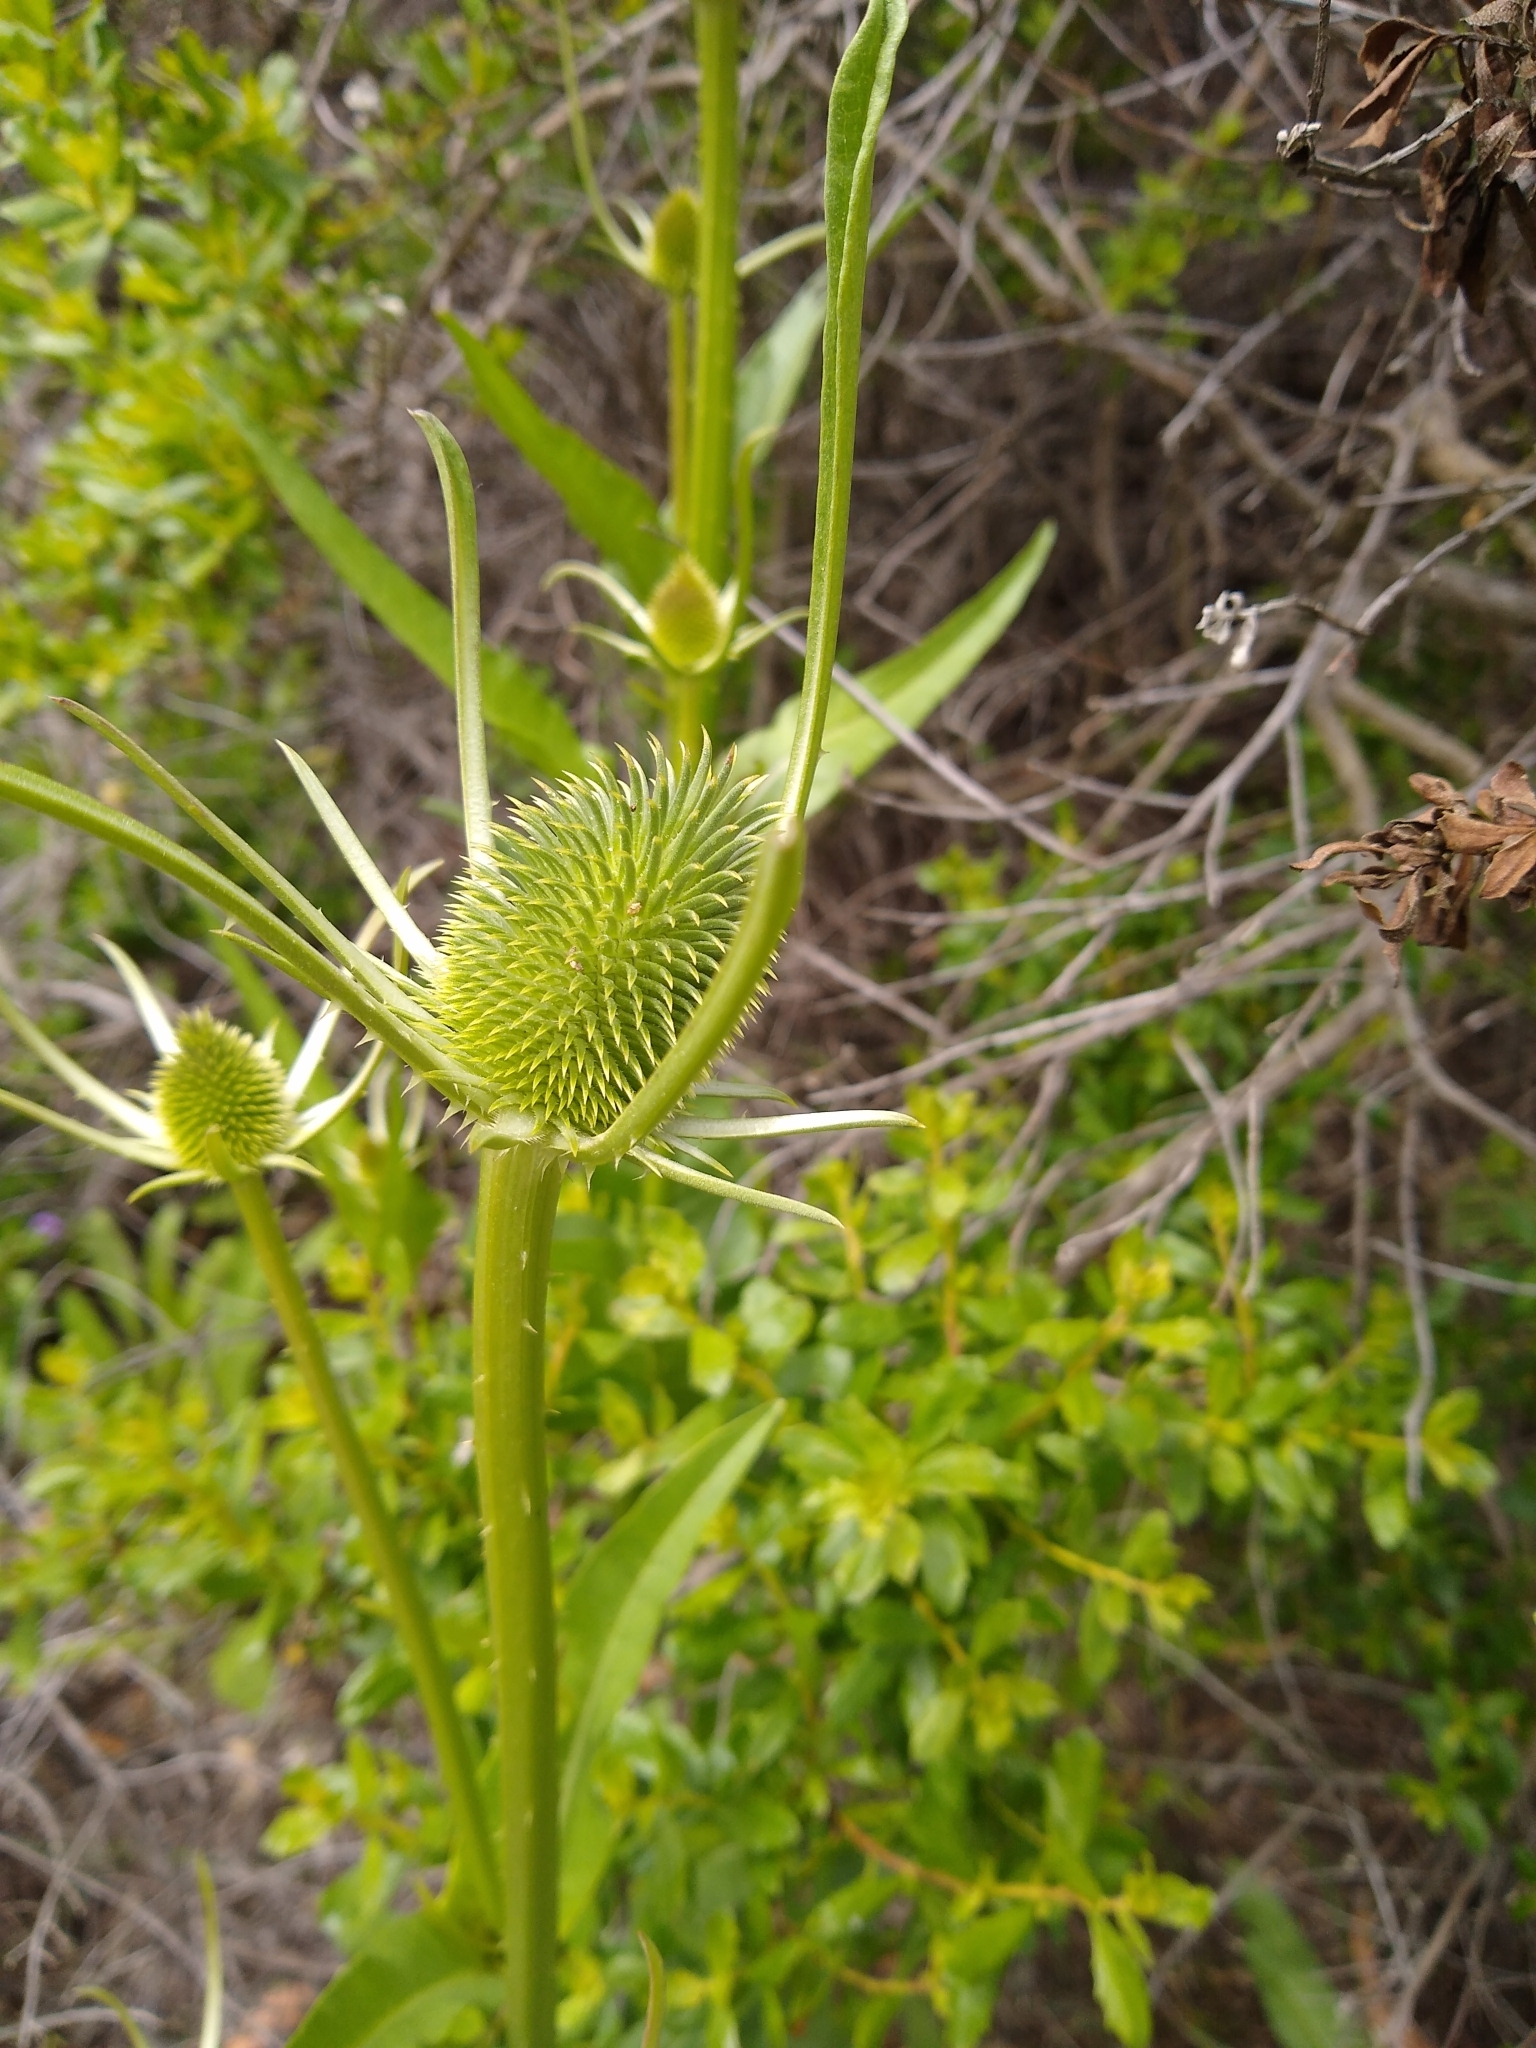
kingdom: Plantae
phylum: Tracheophyta
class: Magnoliopsida
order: Dipsacales
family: Caprifoliaceae
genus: Dipsacus
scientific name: Dipsacus sativus
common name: Fuller's teasel
